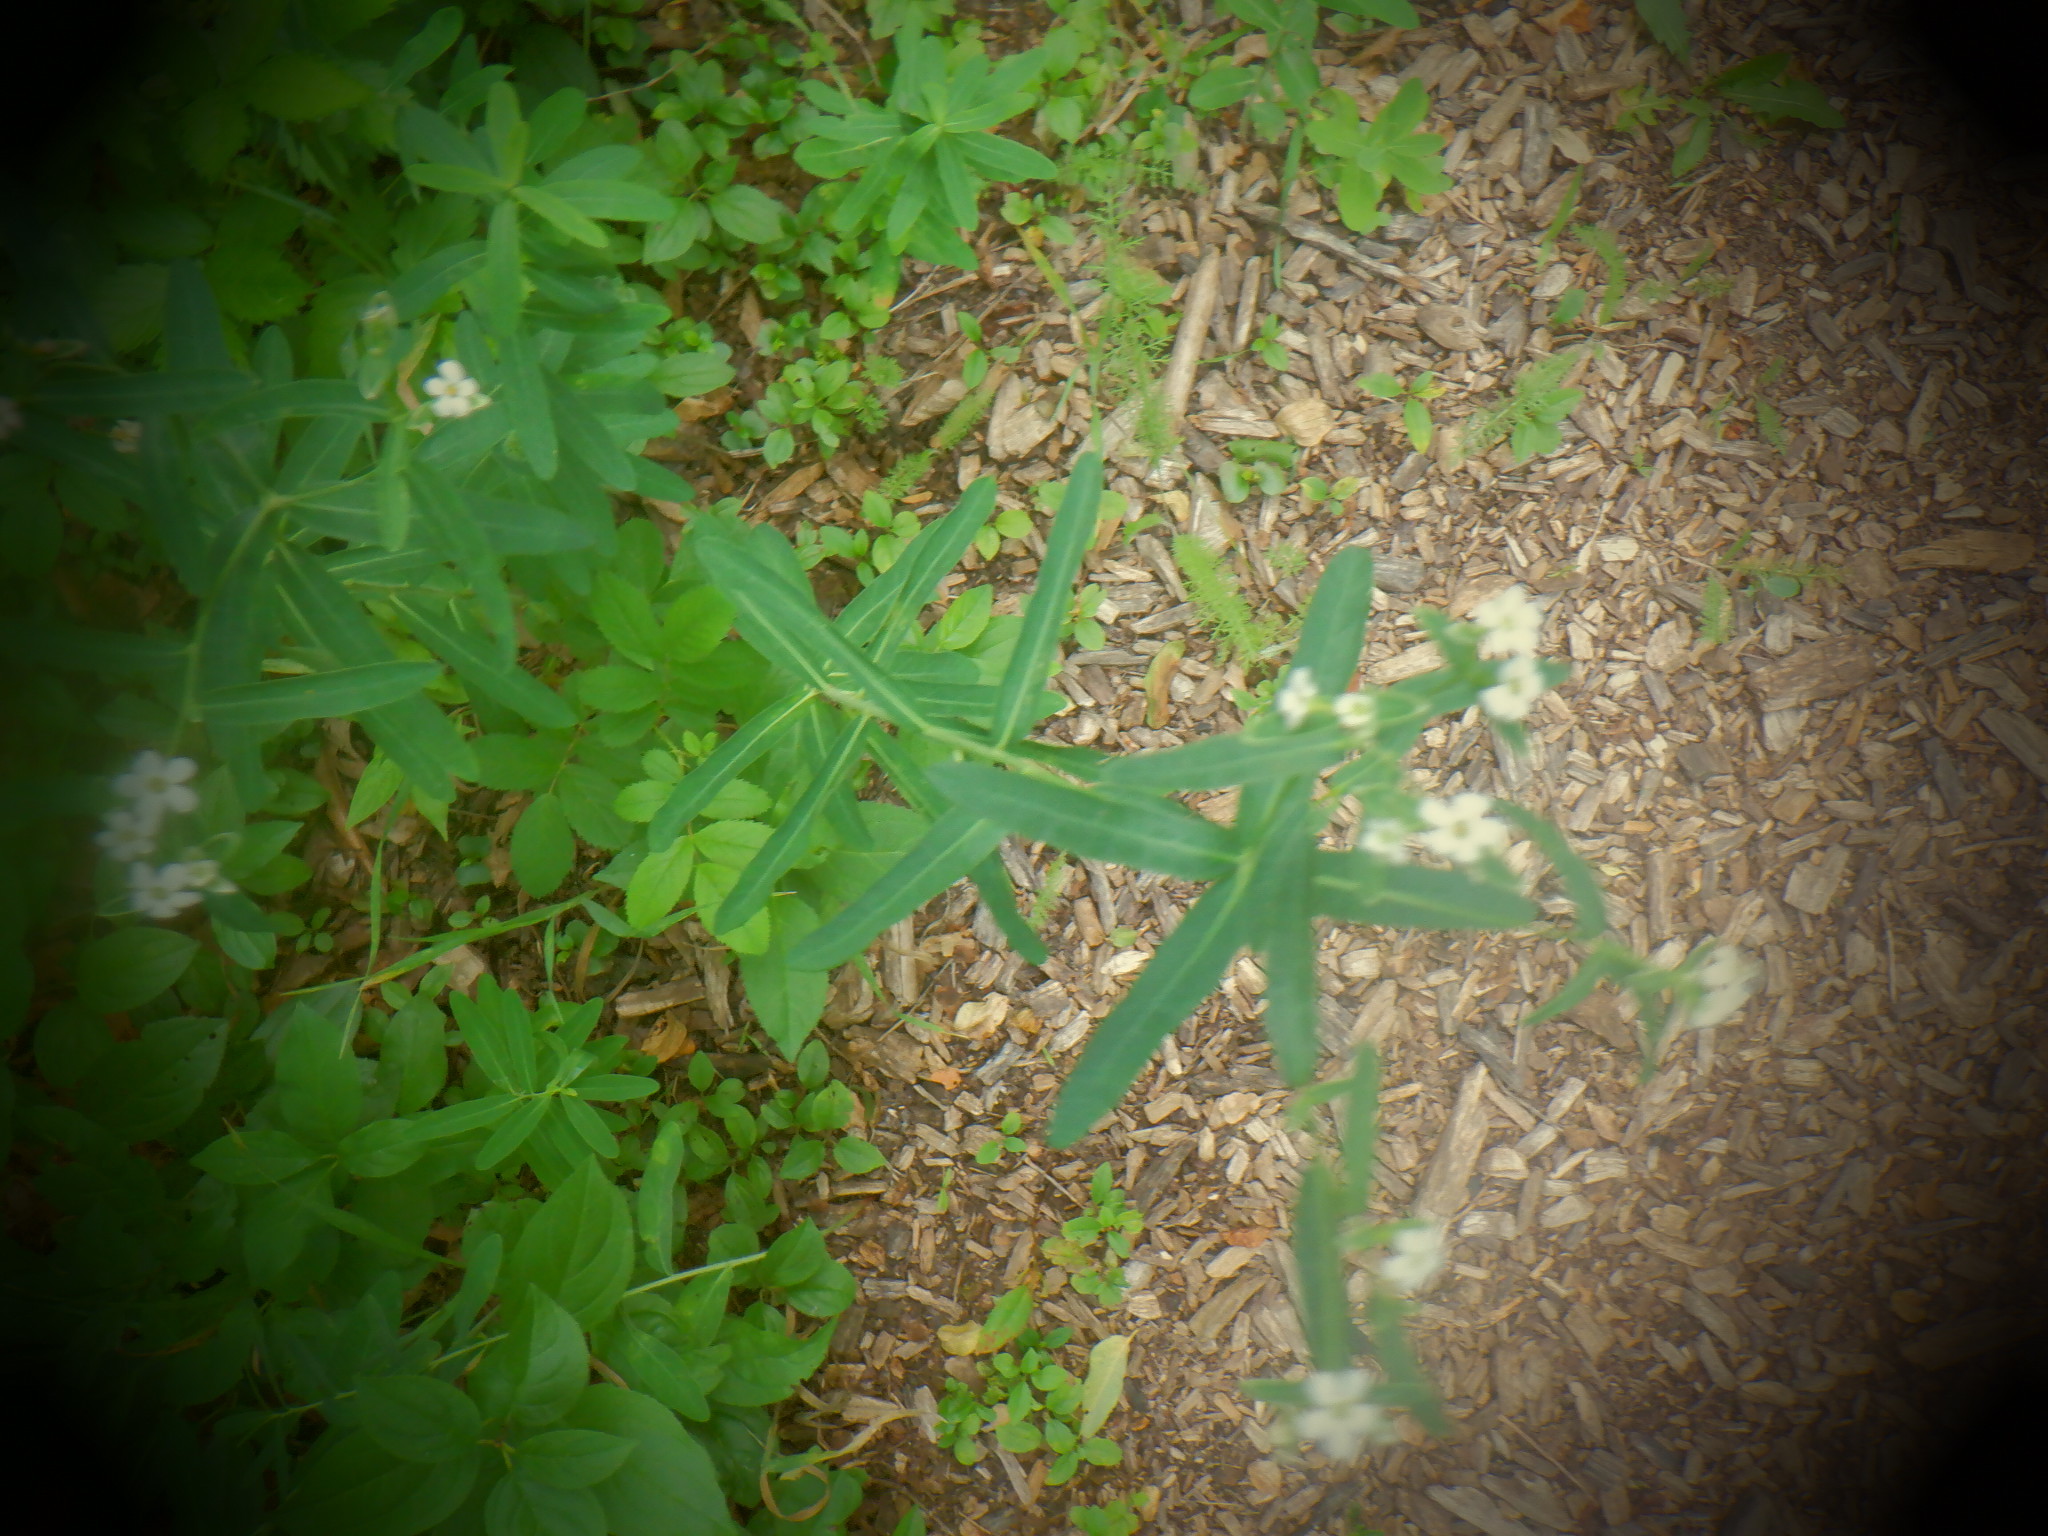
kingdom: Plantae
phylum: Tracheophyta
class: Magnoliopsida
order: Malpighiales
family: Euphorbiaceae
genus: Euphorbia
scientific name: Euphorbia corollata
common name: Flowering spurge
